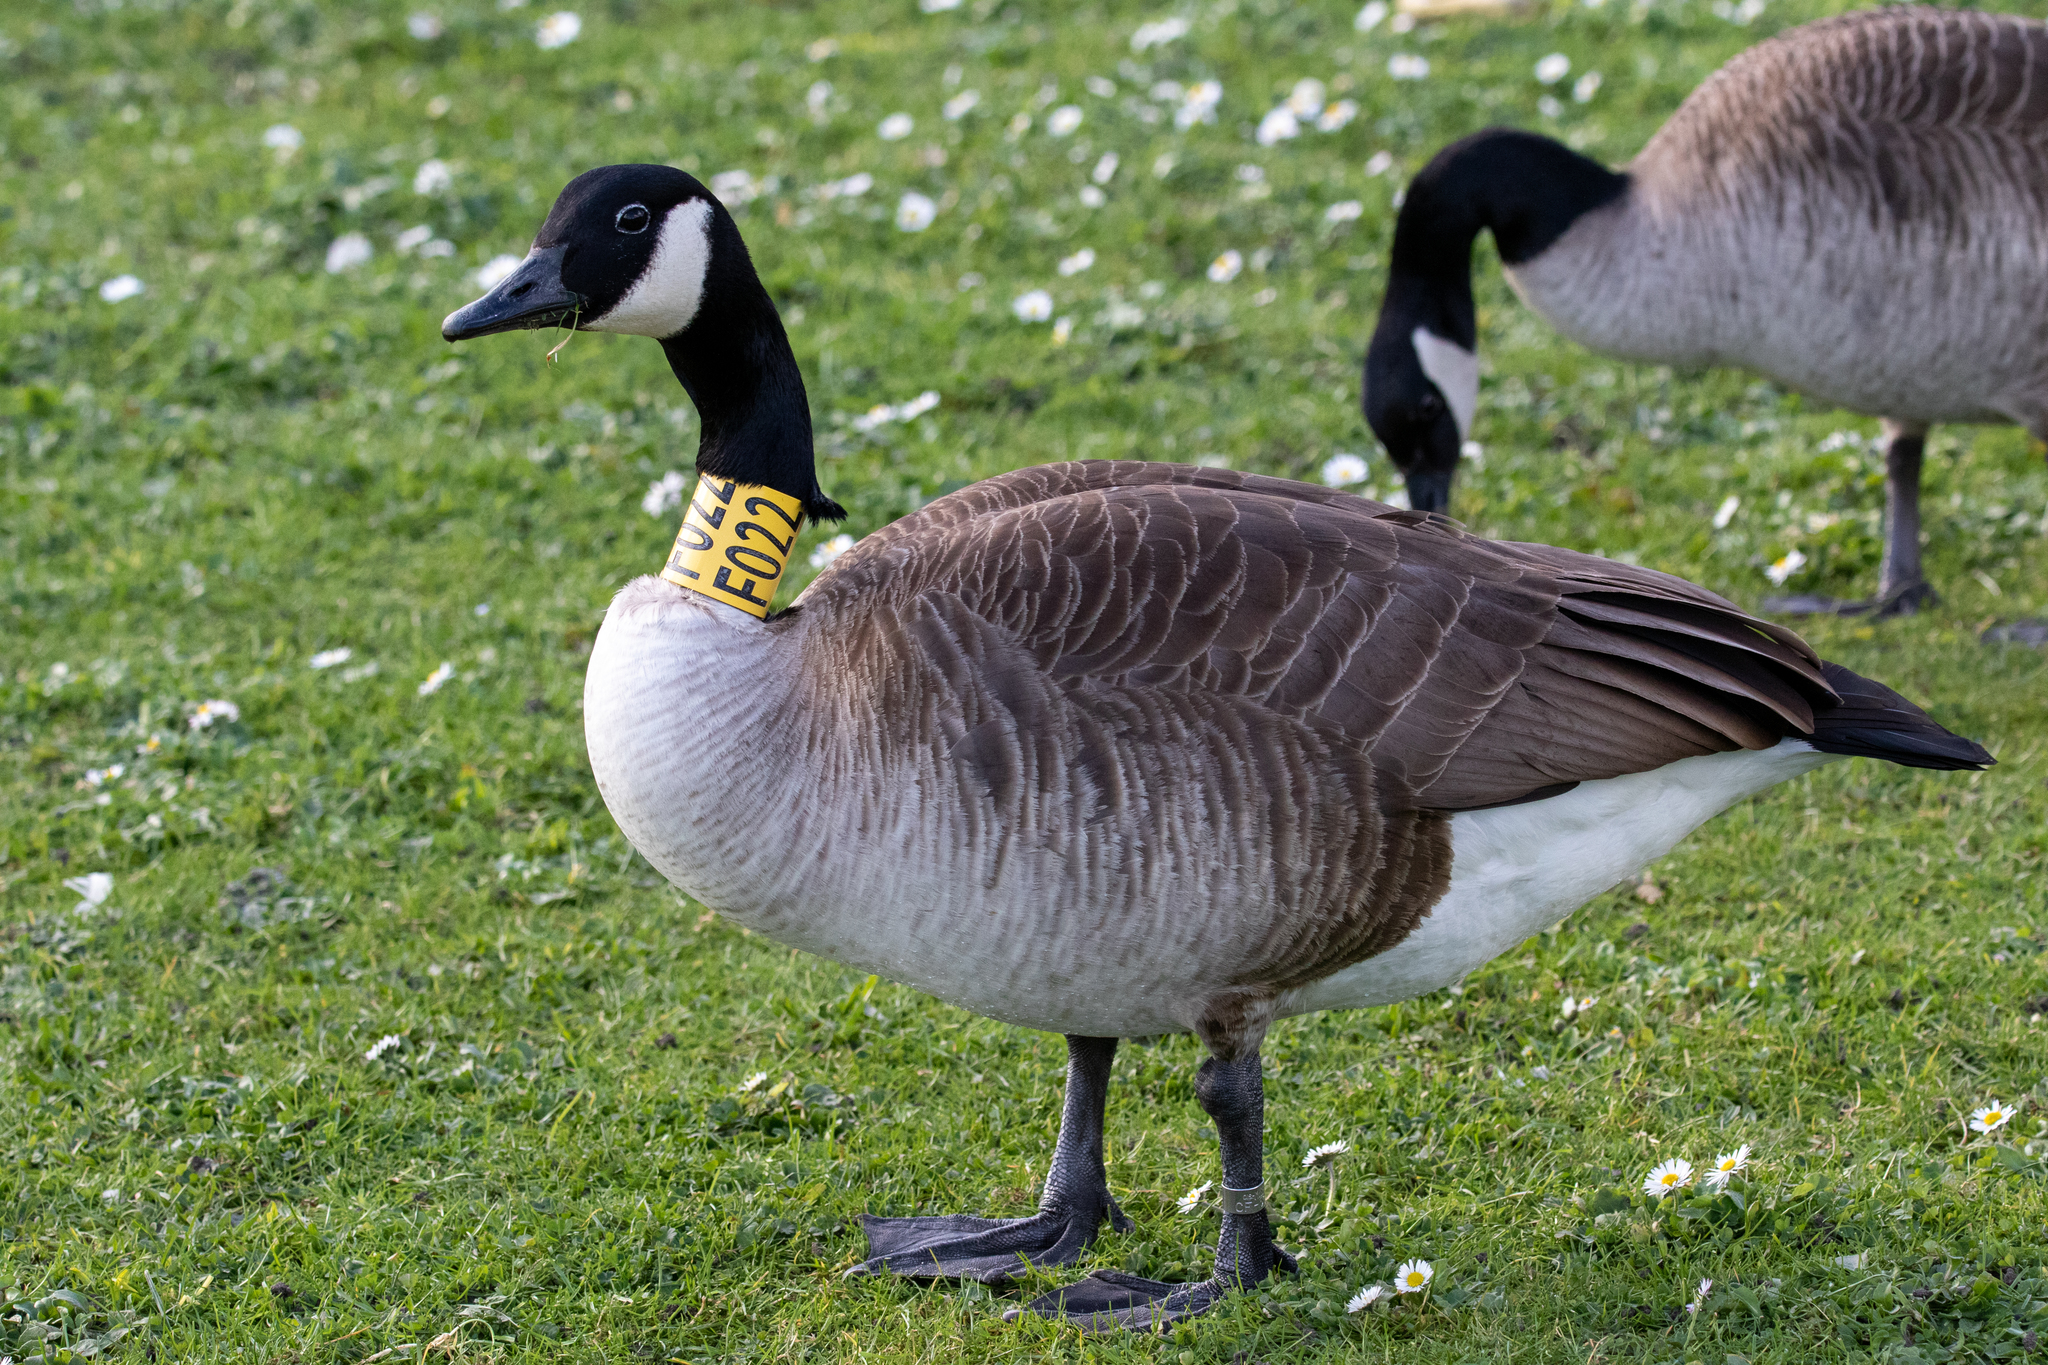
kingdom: Animalia
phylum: Chordata
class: Aves
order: Anseriformes
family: Anatidae
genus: Branta
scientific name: Branta canadensis
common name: Canada goose
